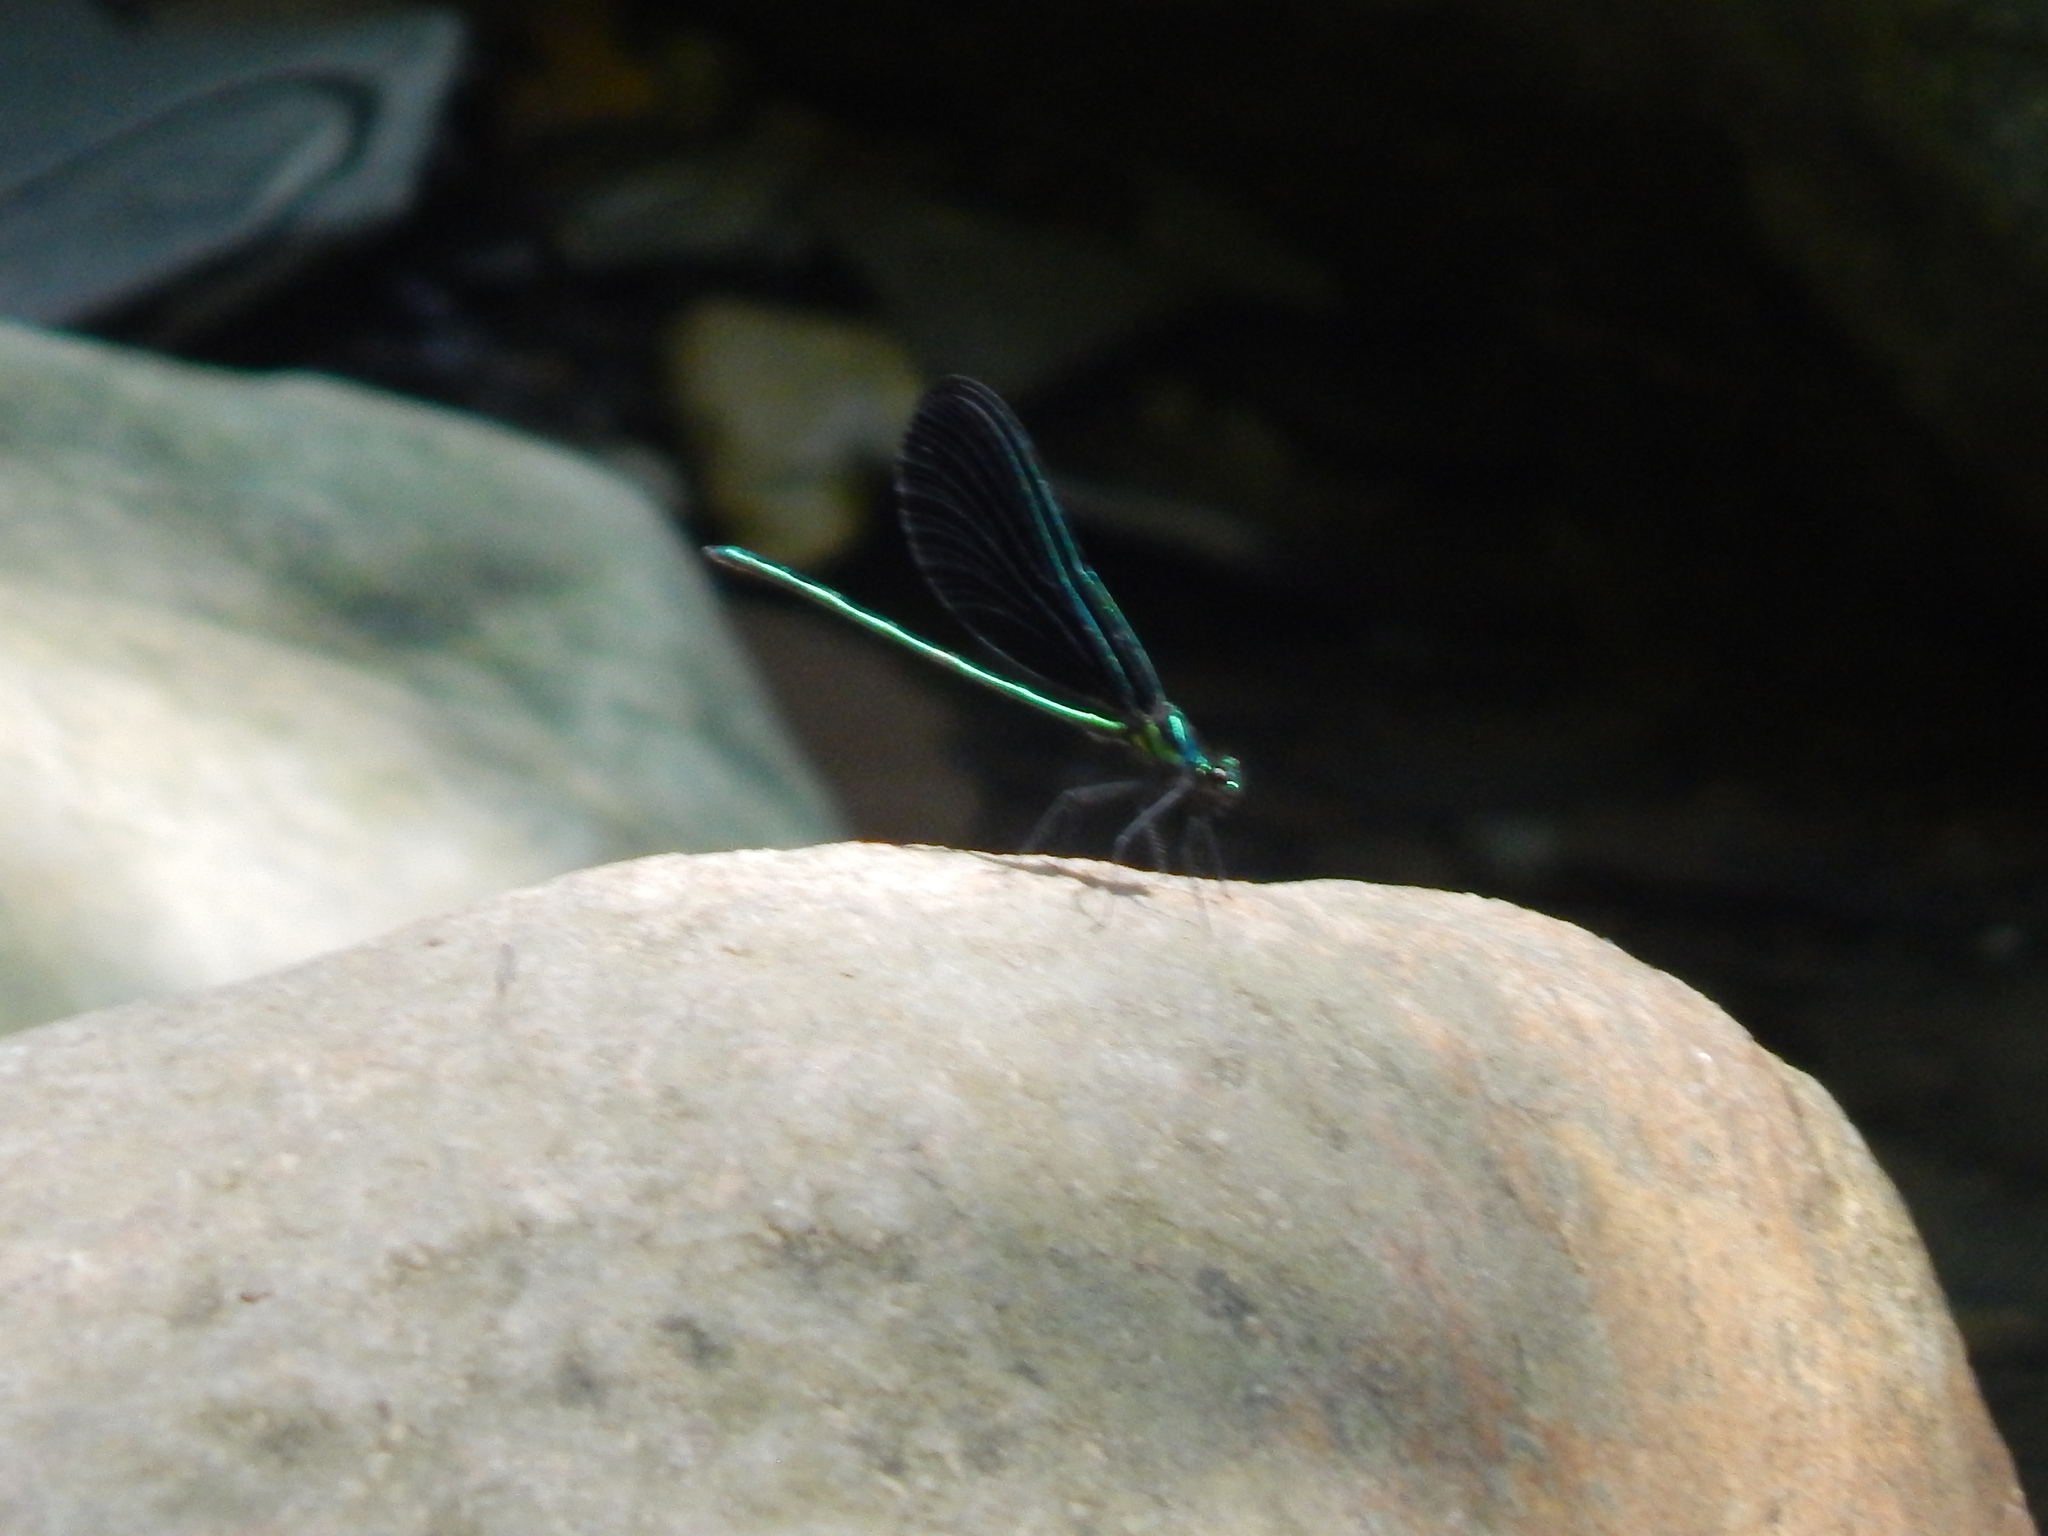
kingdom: Animalia
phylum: Arthropoda
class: Insecta
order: Odonata
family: Calopterygidae
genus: Calopteryx
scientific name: Calopteryx maculata
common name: Ebony jewelwing
